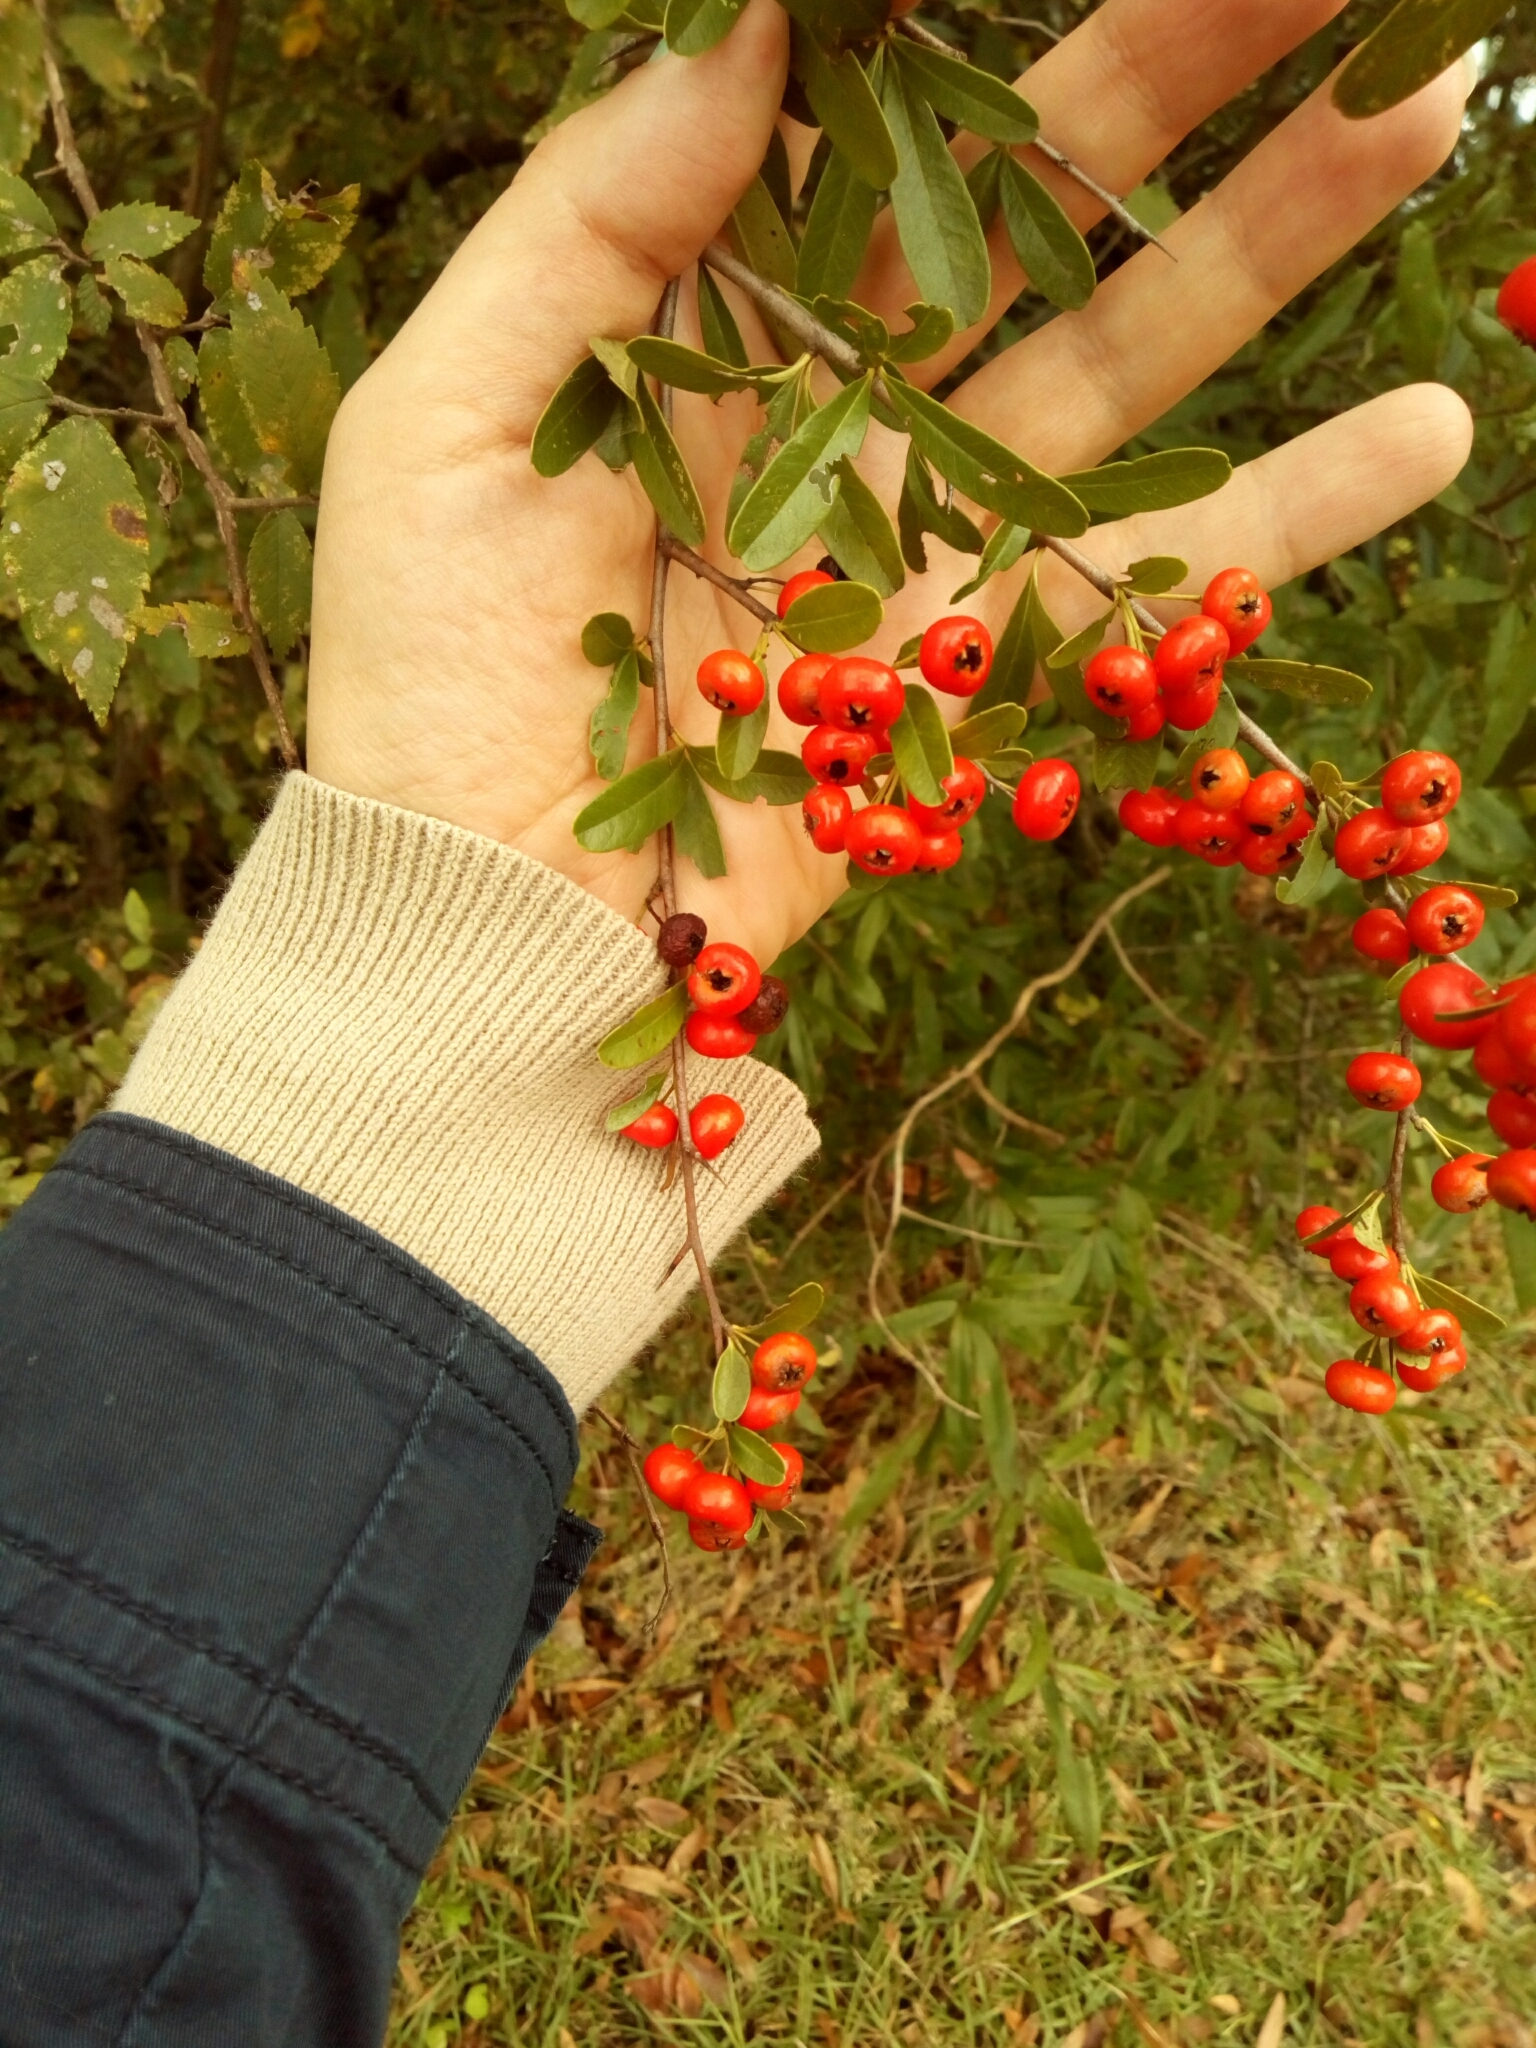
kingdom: Plantae
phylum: Tracheophyta
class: Magnoliopsida
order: Rosales
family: Rosaceae
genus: Pyracantha
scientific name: Pyracantha coccinea
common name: Firethorn
